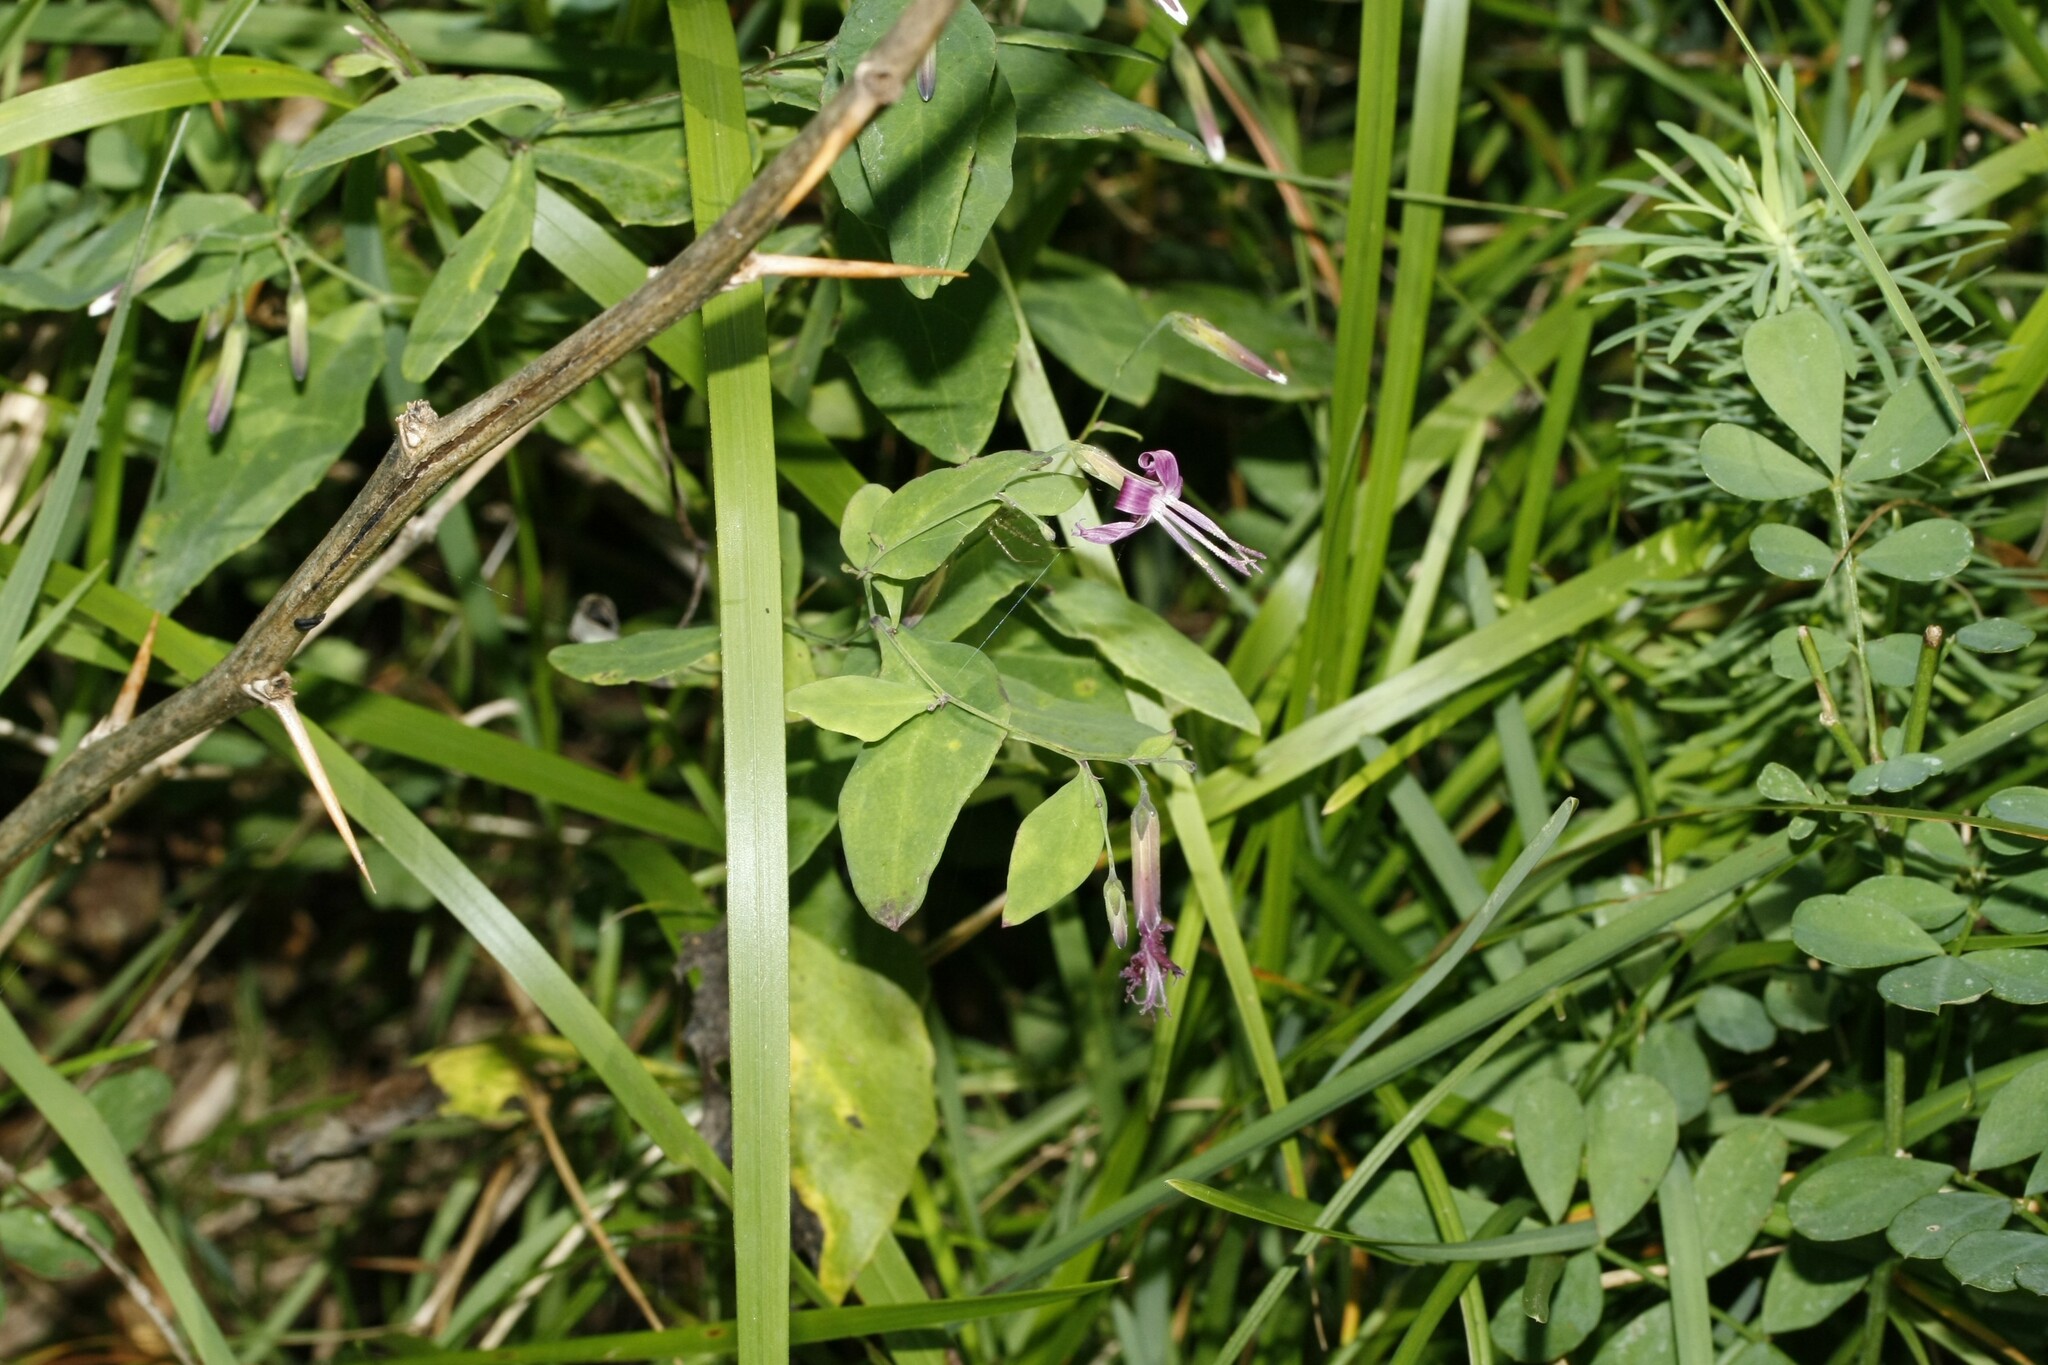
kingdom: Plantae
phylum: Tracheophyta
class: Magnoliopsida
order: Asterales
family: Asteraceae
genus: Prenanthes
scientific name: Prenanthes purpurea
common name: Purple lettuce
